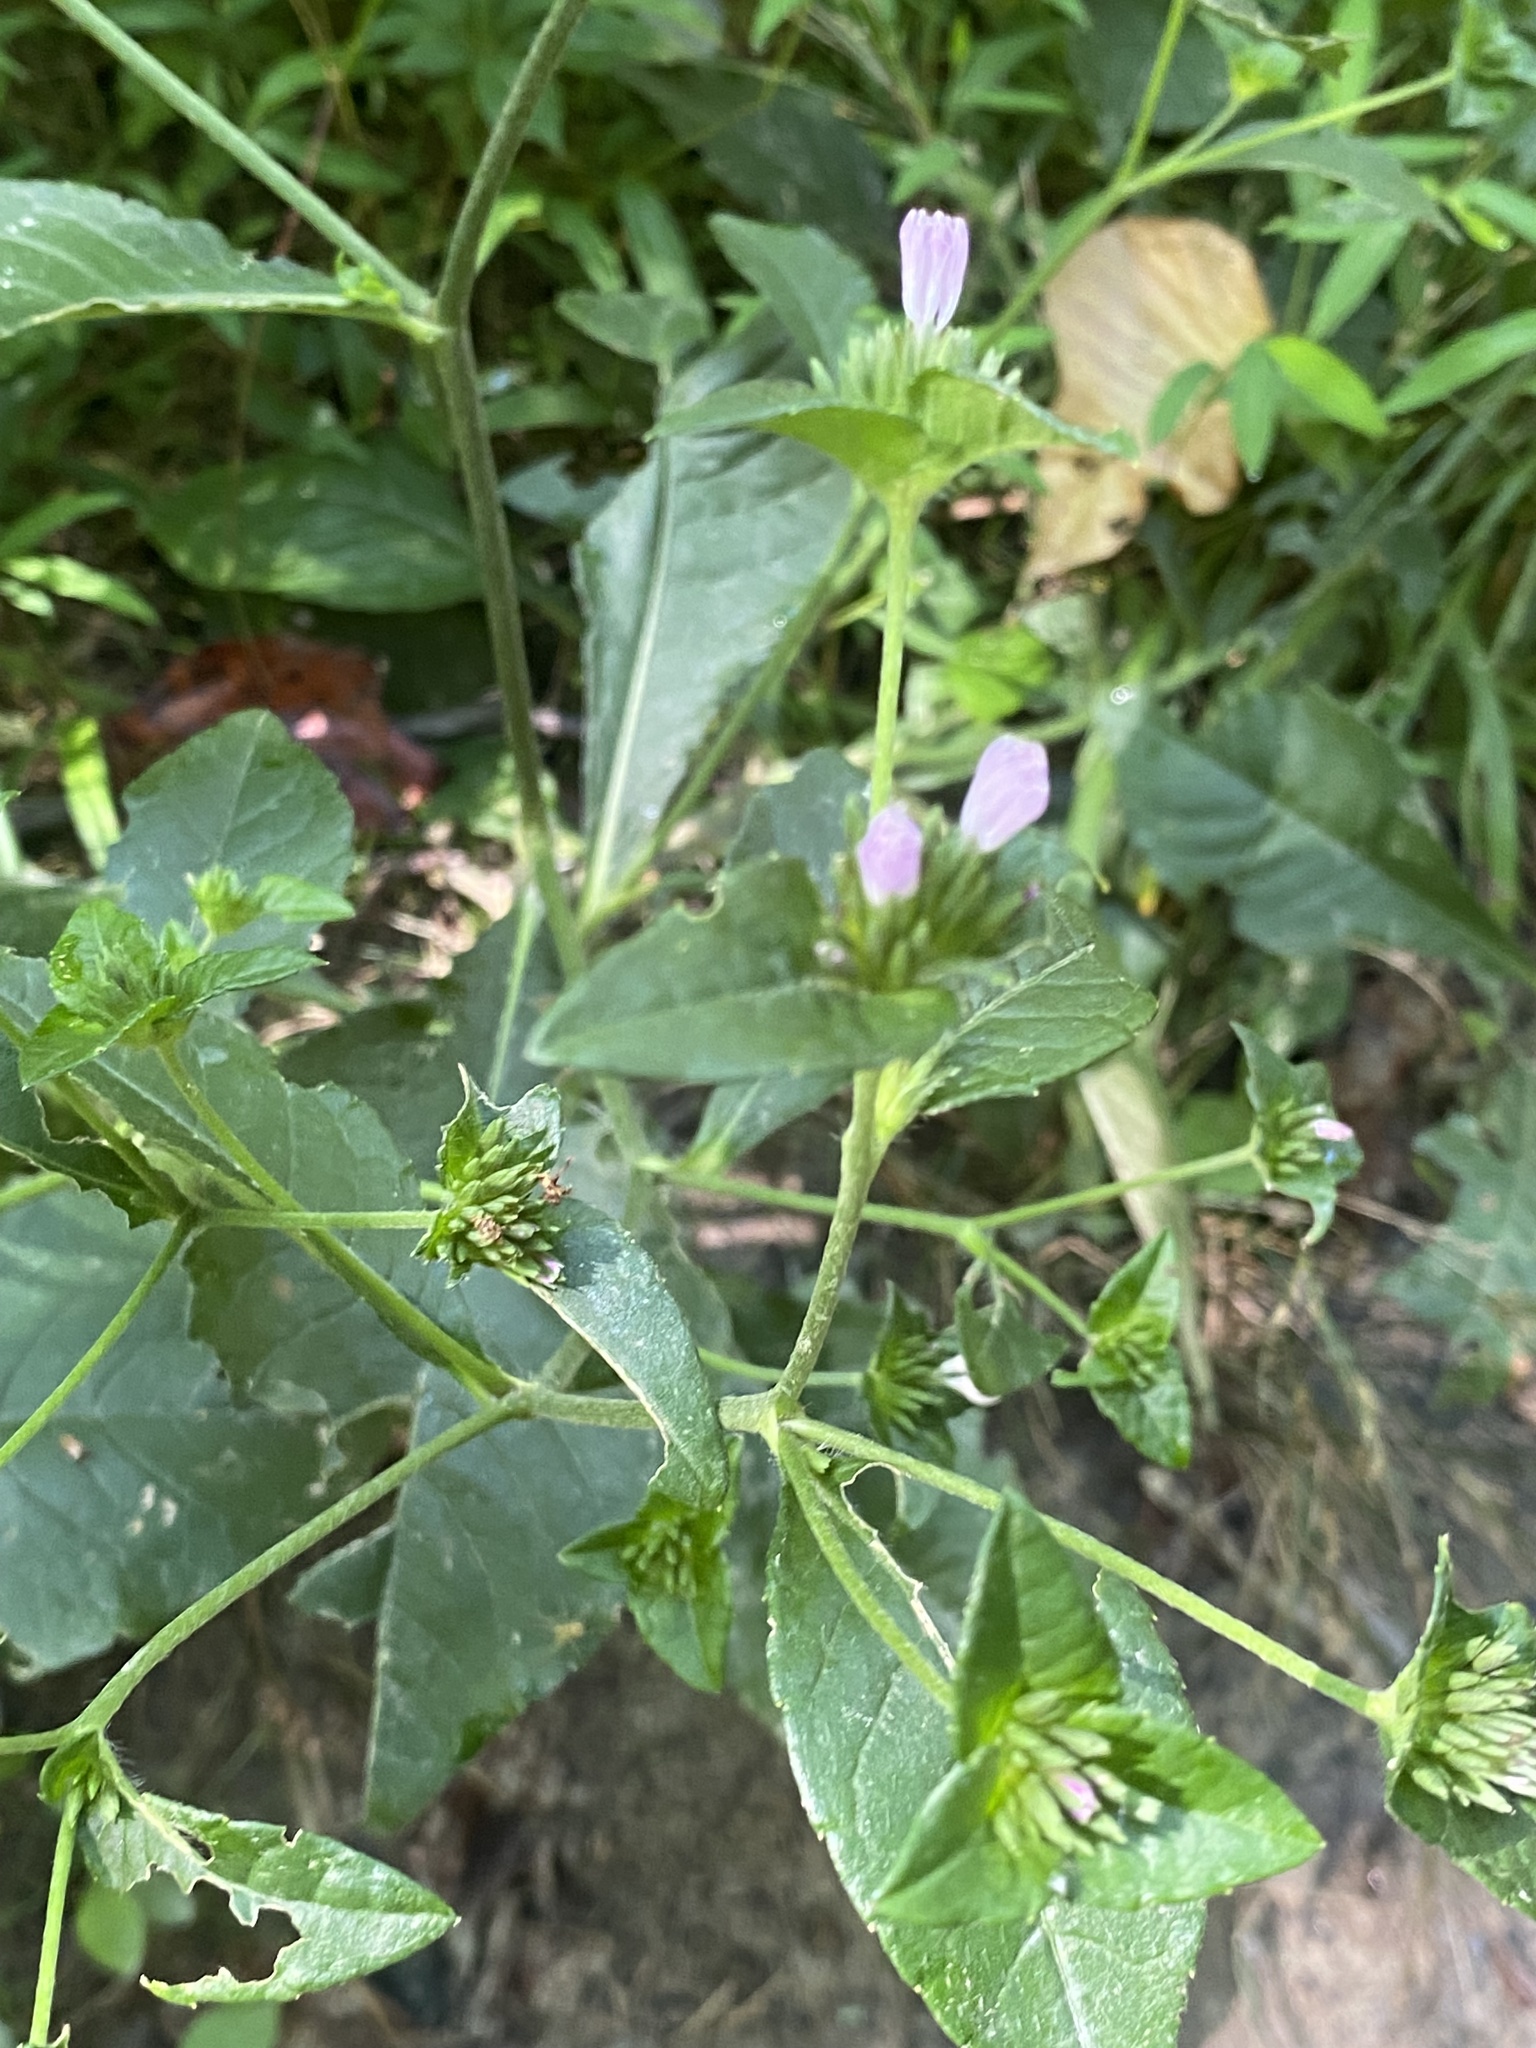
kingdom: Plantae
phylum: Tracheophyta
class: Magnoliopsida
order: Asterales
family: Asteraceae
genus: Elephantopus
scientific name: Elephantopus carolinianus
